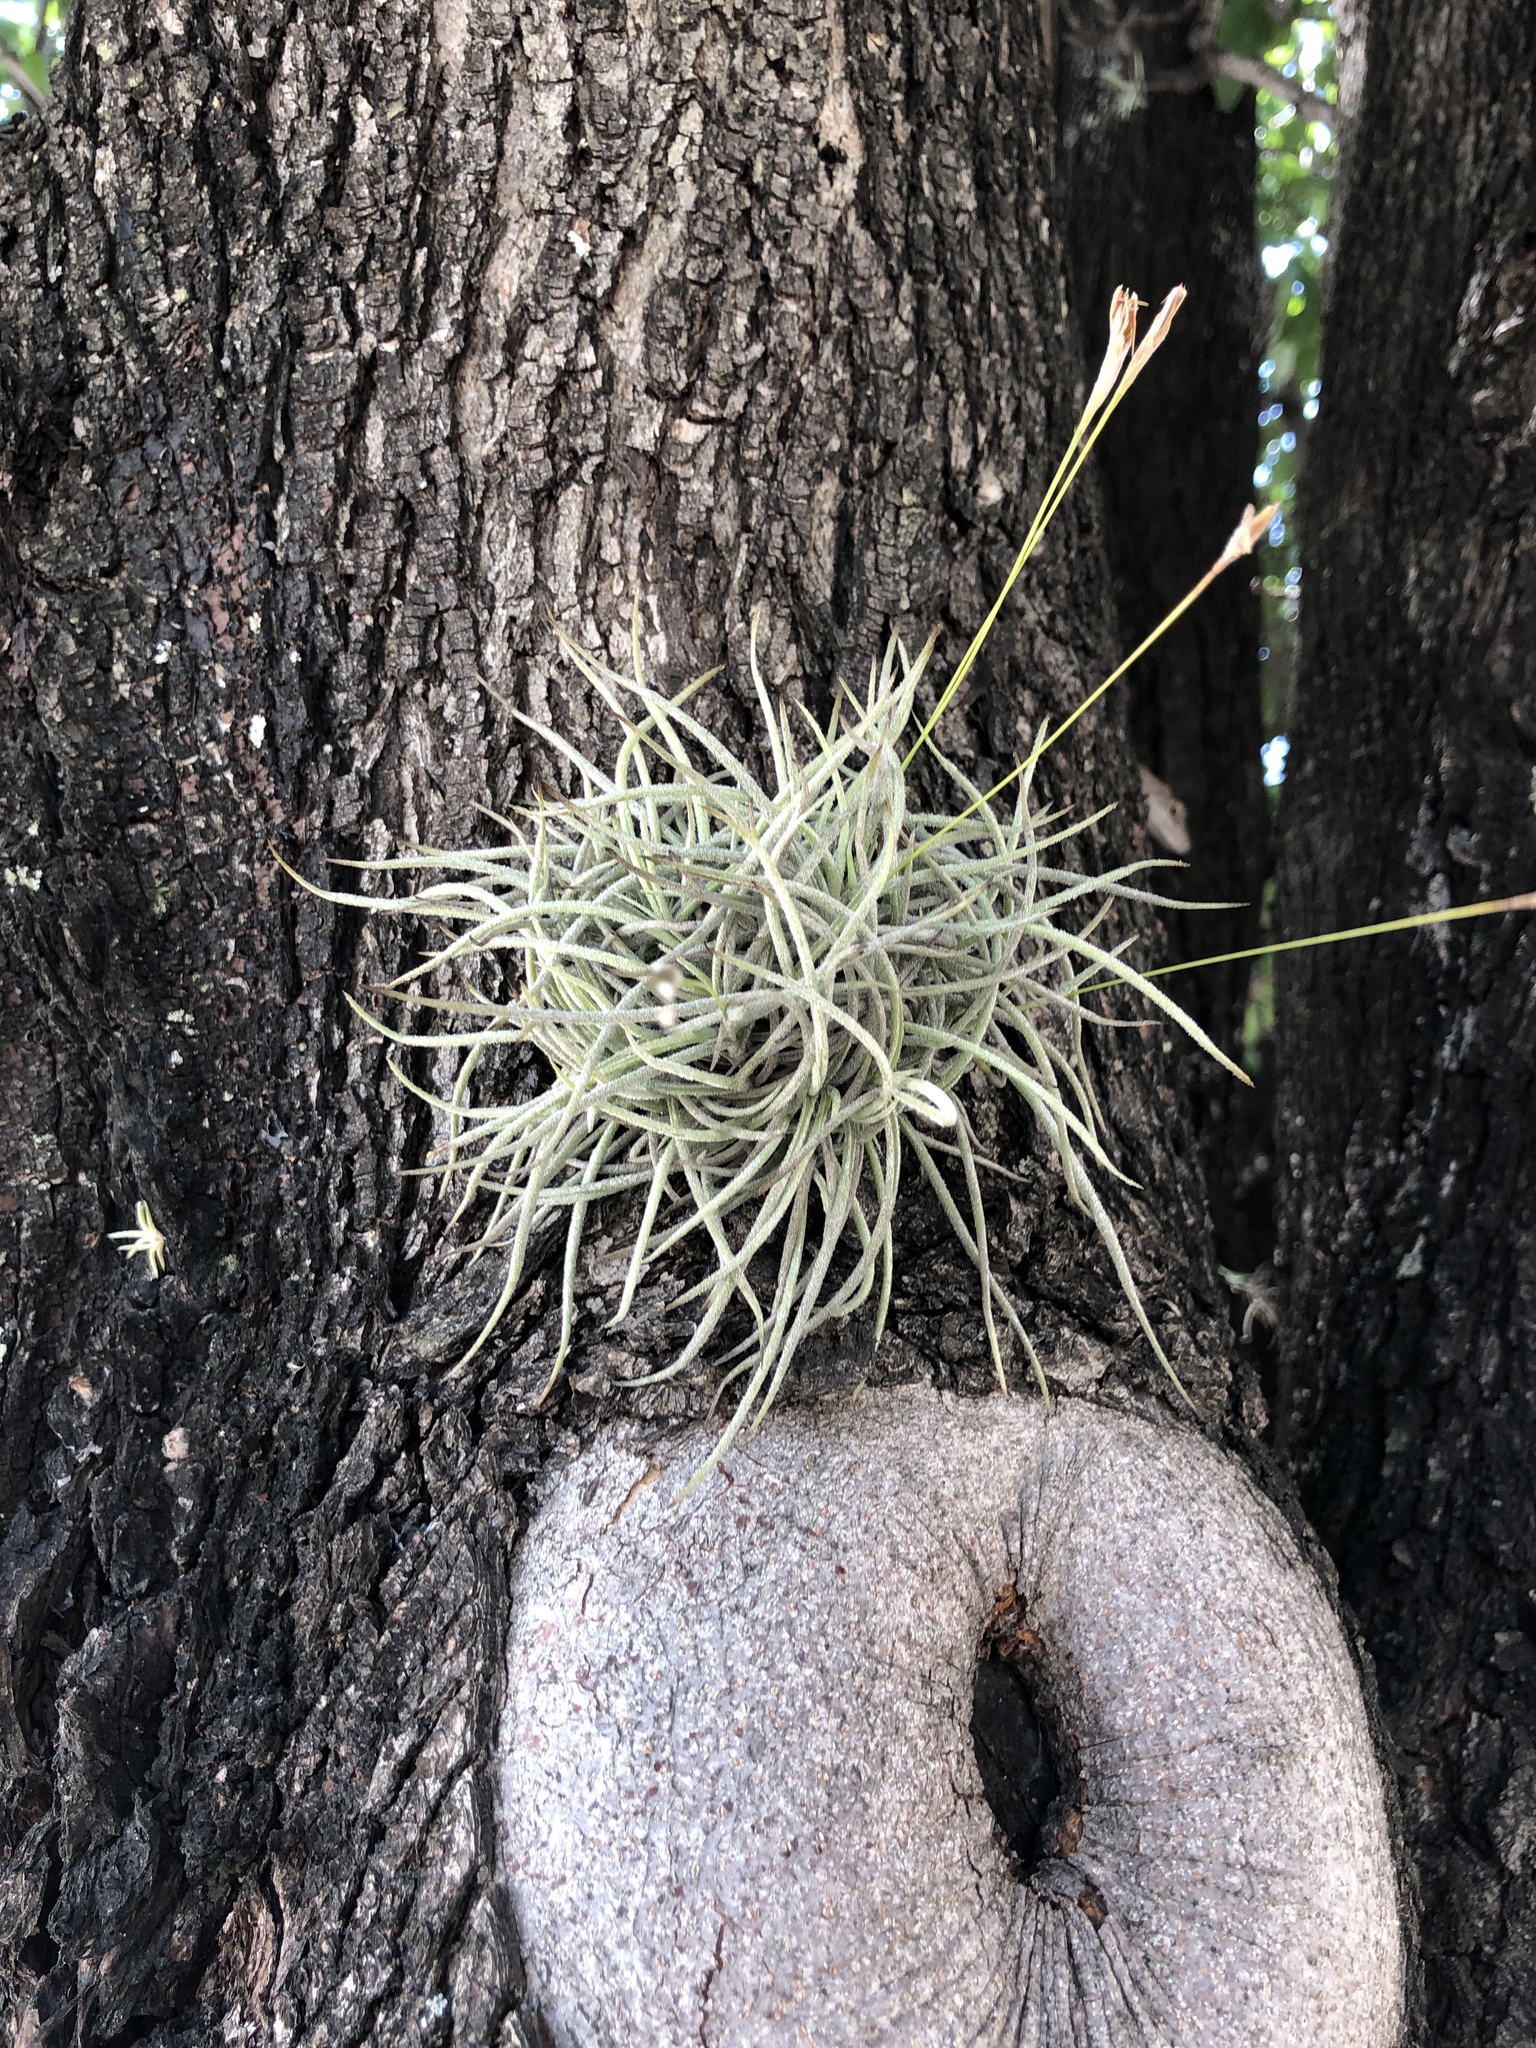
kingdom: Plantae
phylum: Tracheophyta
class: Liliopsida
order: Poales
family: Bromeliaceae
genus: Tillandsia
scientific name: Tillandsia recurvata
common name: Small ballmoss
